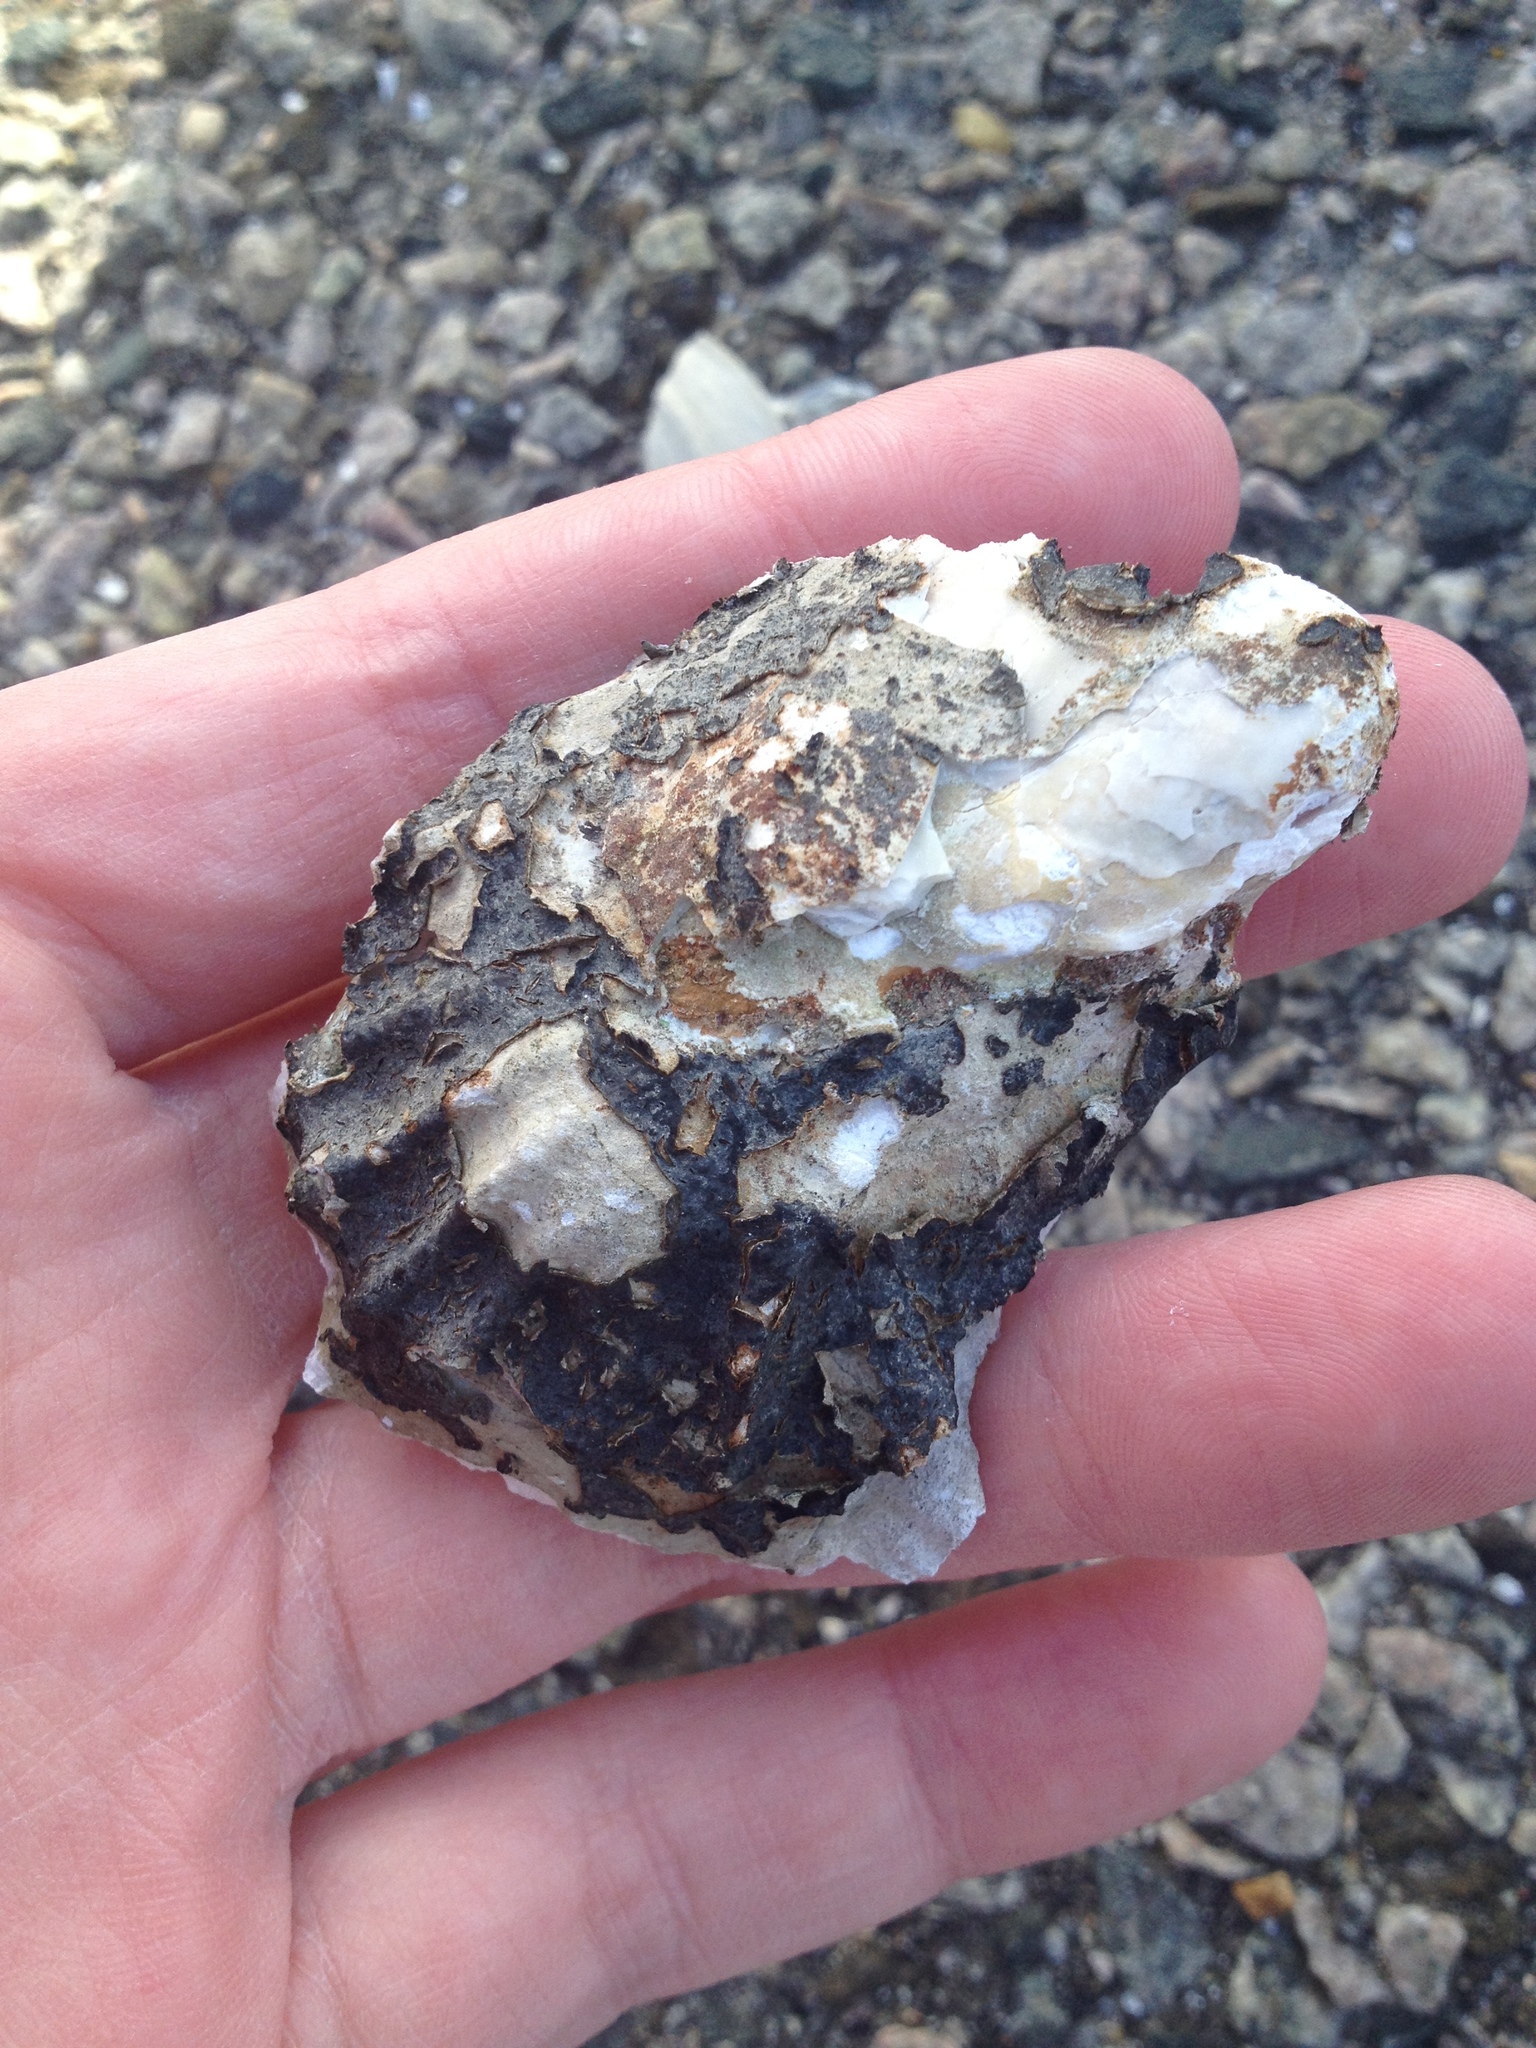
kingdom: Animalia
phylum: Mollusca
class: Bivalvia
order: Ostreida
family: Ostreidae
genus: Crassostrea
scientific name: Crassostrea virginica
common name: American oyster
